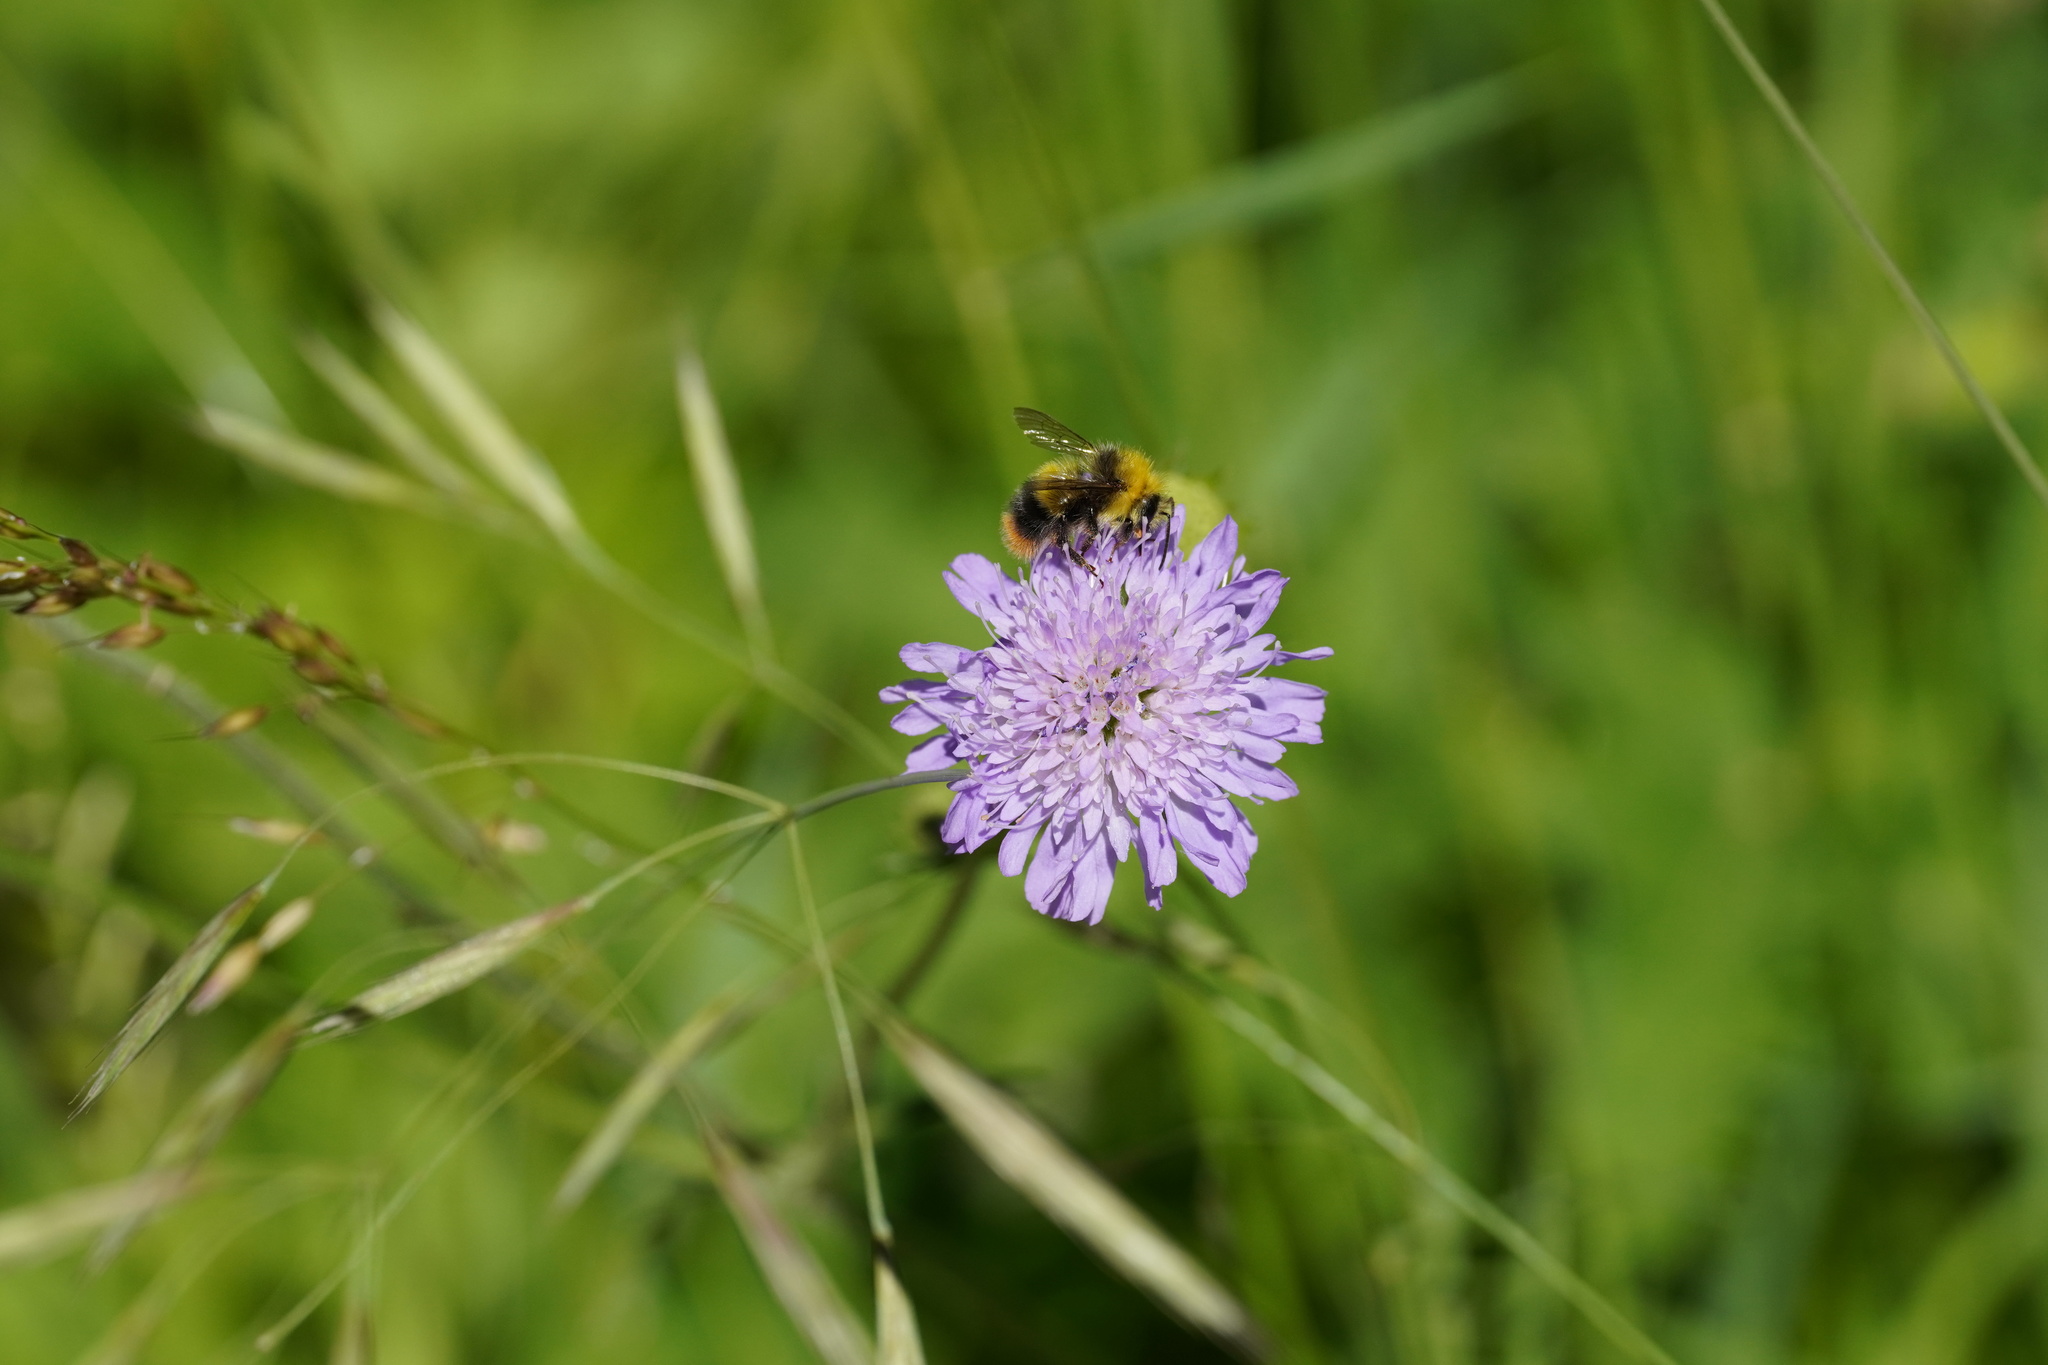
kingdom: Animalia
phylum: Arthropoda
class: Insecta
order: Hymenoptera
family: Apidae
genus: Bombus
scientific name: Bombus pratorum
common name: Early humble-bee
